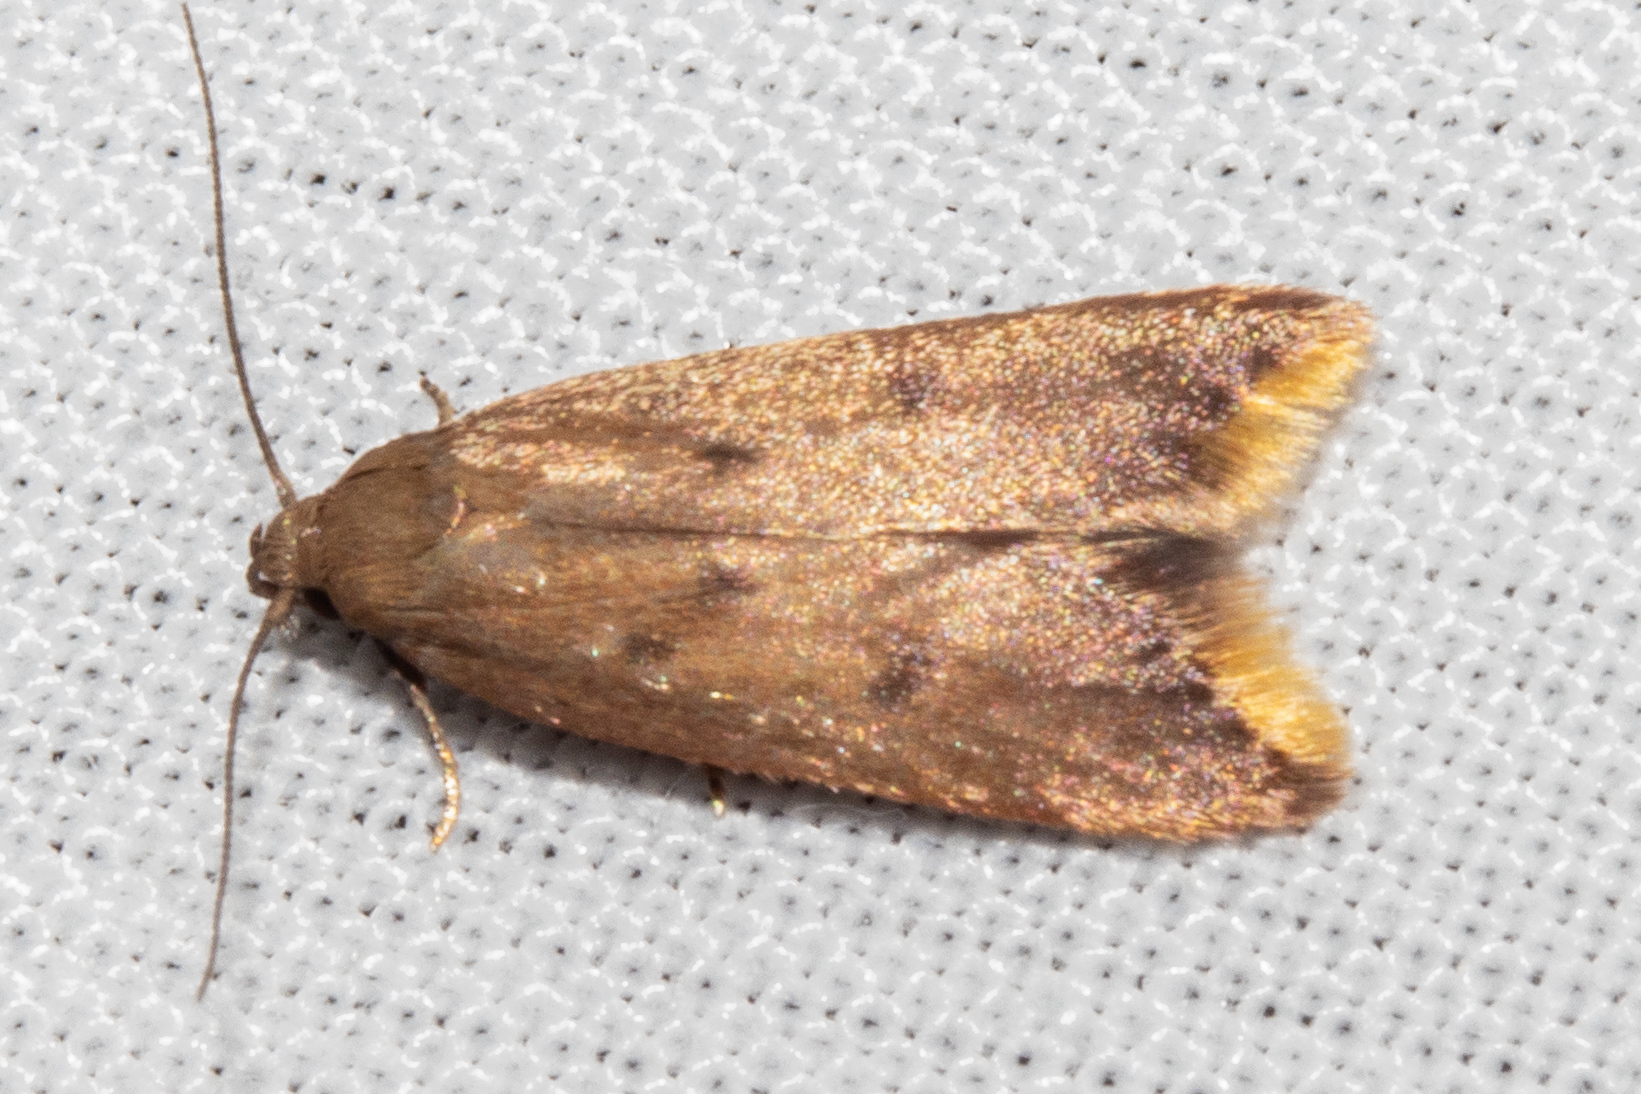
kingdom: Animalia
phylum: Arthropoda
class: Insecta
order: Lepidoptera
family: Oecophoridae
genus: Tachystola
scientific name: Tachystola acroxantha
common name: Ruddy streak
